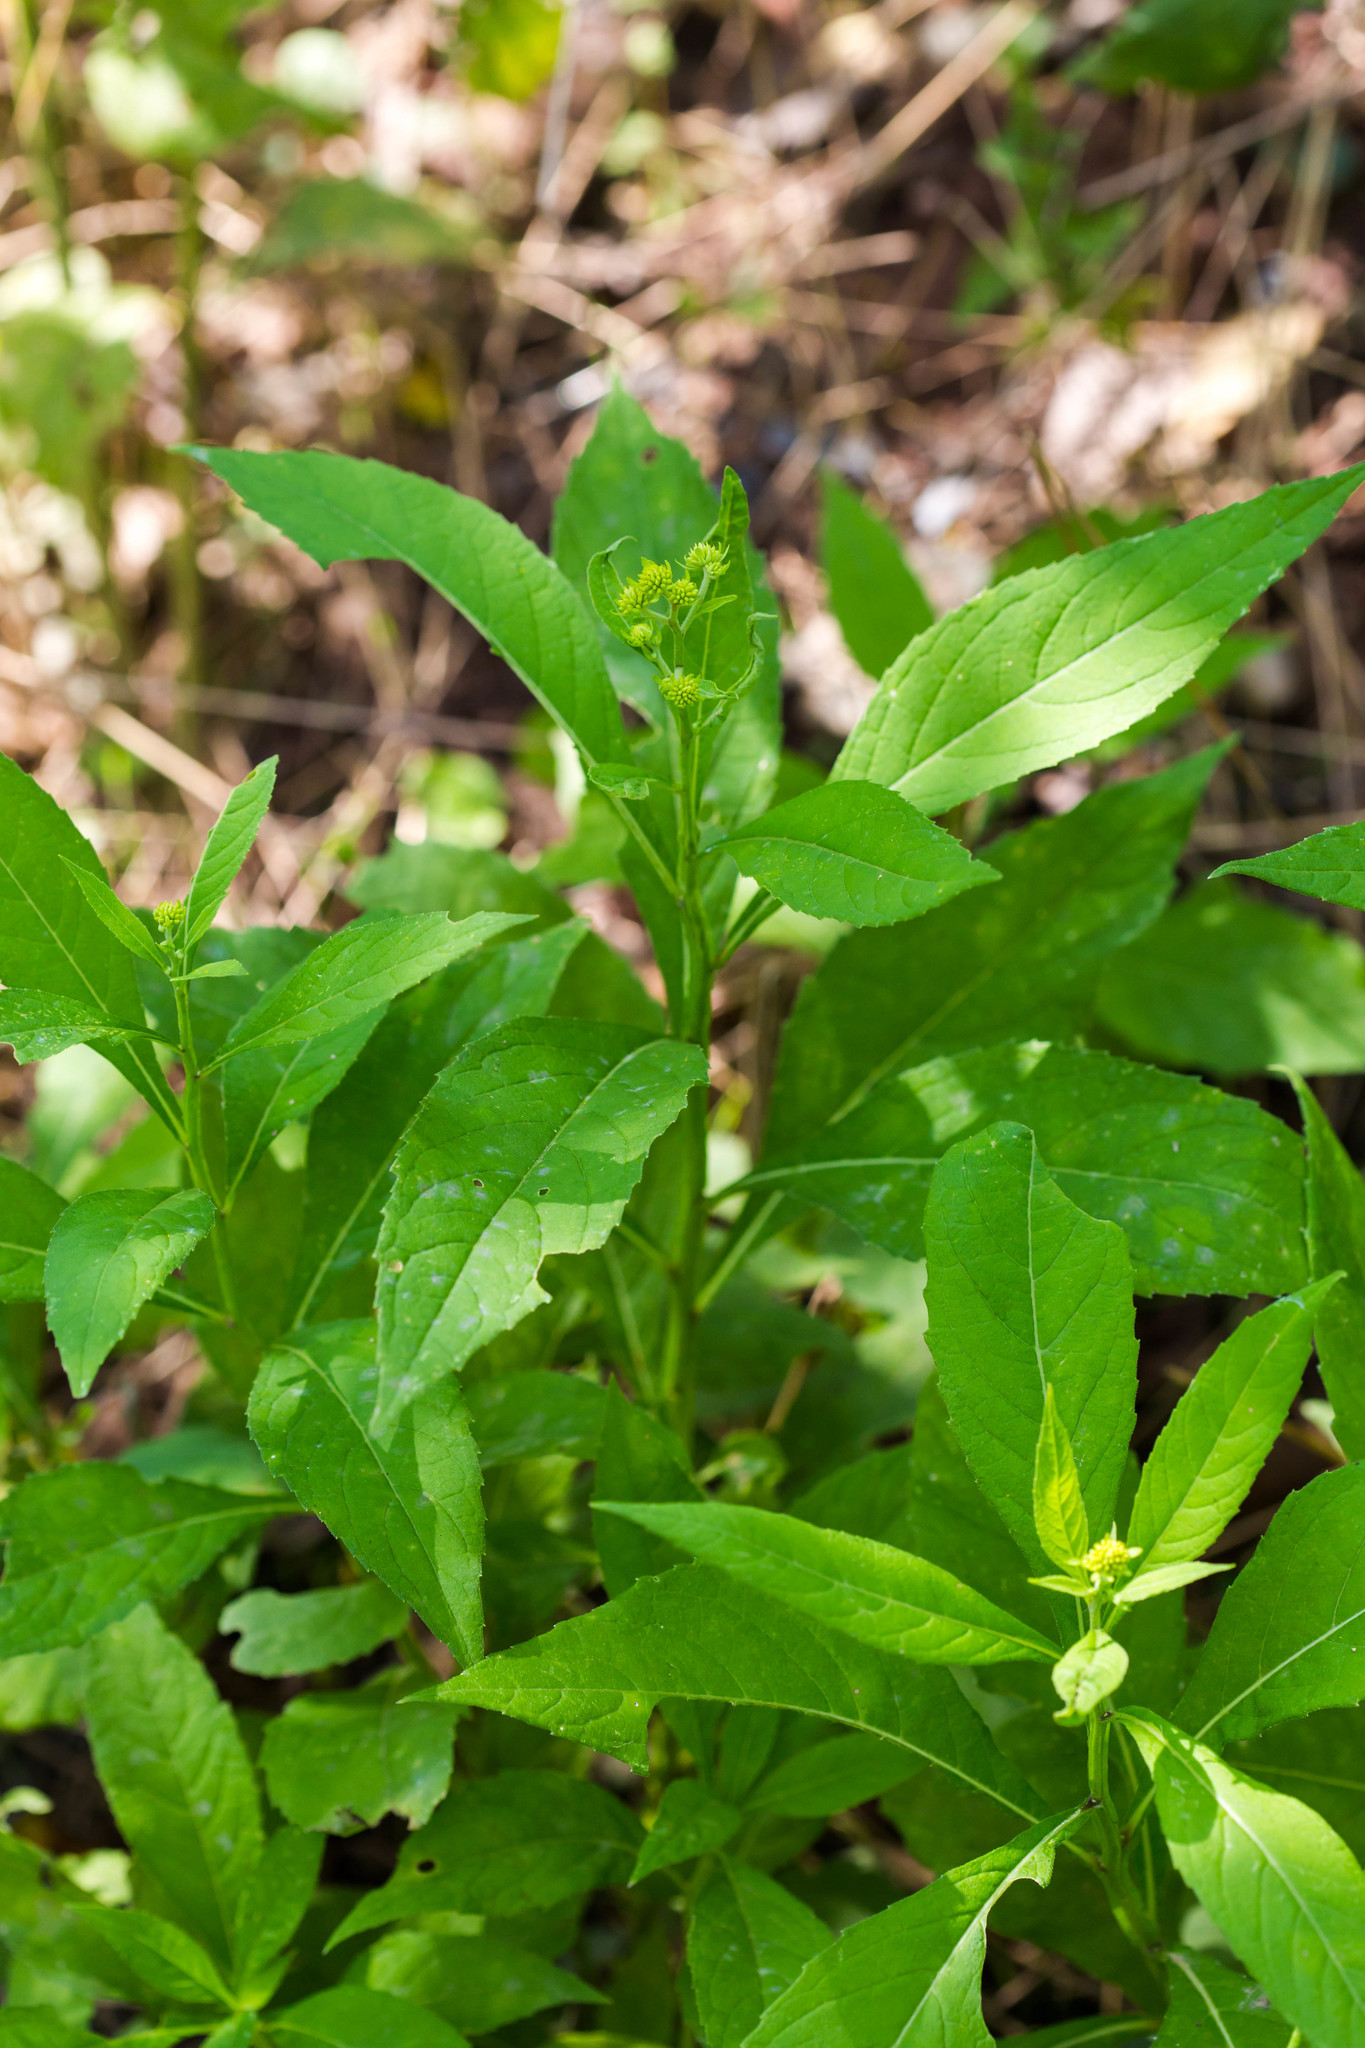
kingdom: Plantae
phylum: Tracheophyta
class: Magnoliopsida
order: Asterales
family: Asteraceae
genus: Verbesina
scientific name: Verbesina alternifolia
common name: Wingstem
